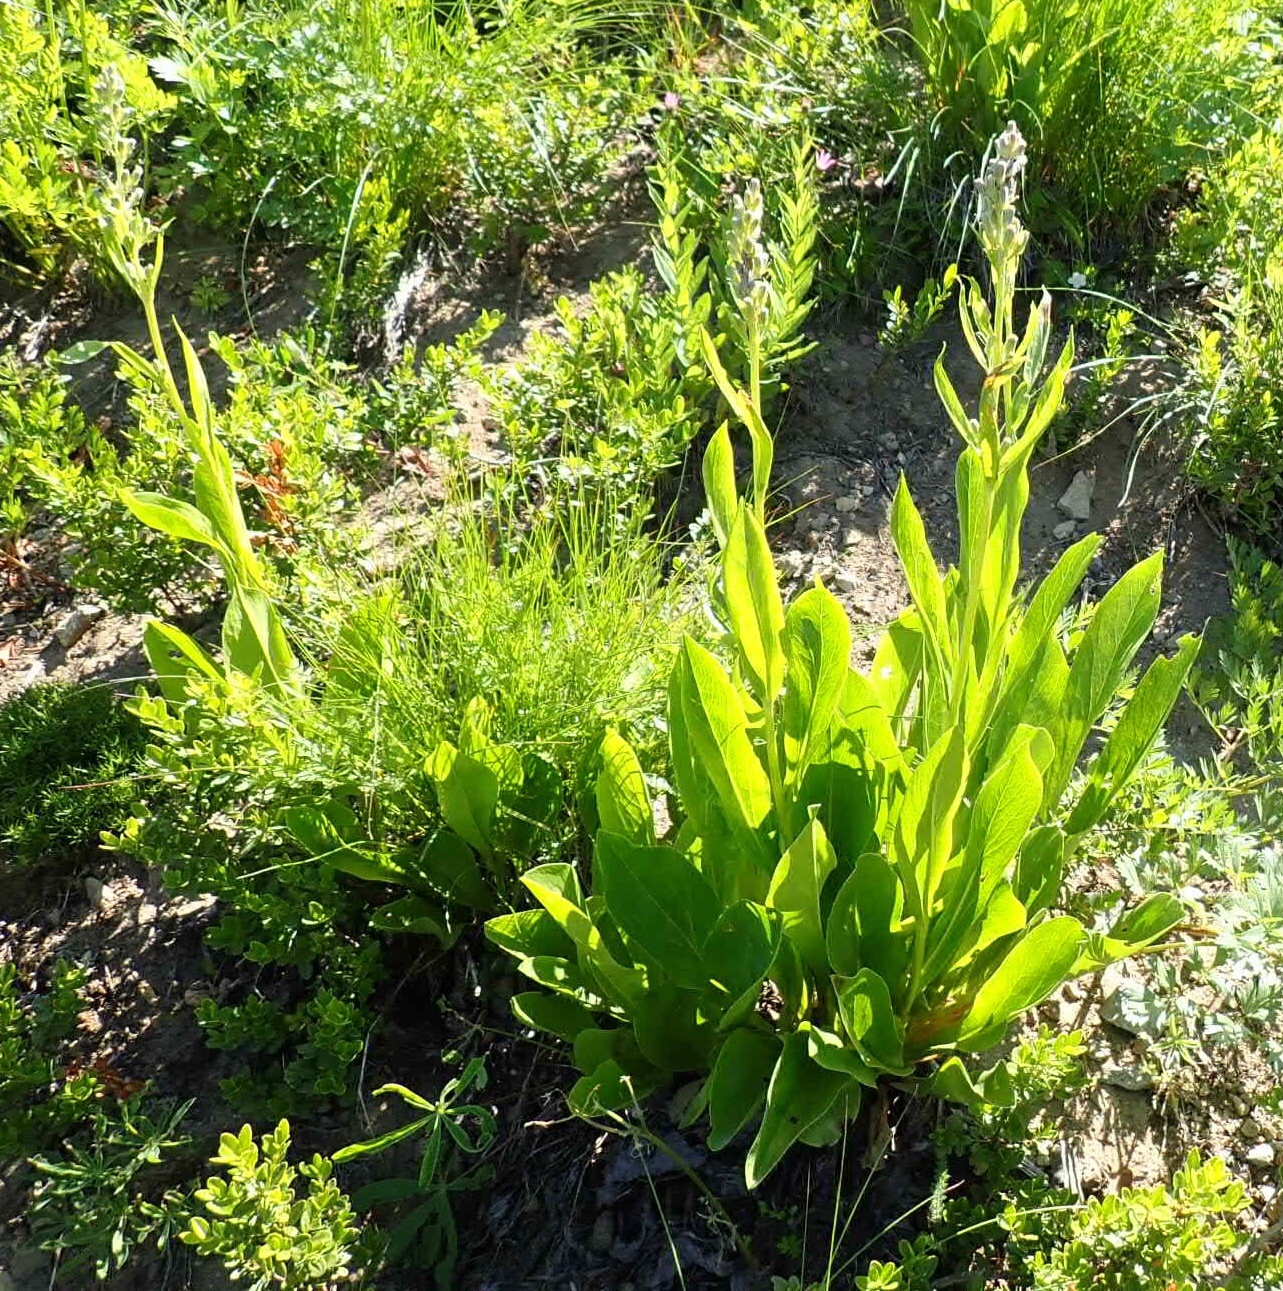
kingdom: Plantae
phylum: Tracheophyta
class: Magnoliopsida
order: Asterales
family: Asteraceae
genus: Rainiera
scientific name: Rainiera stricta
